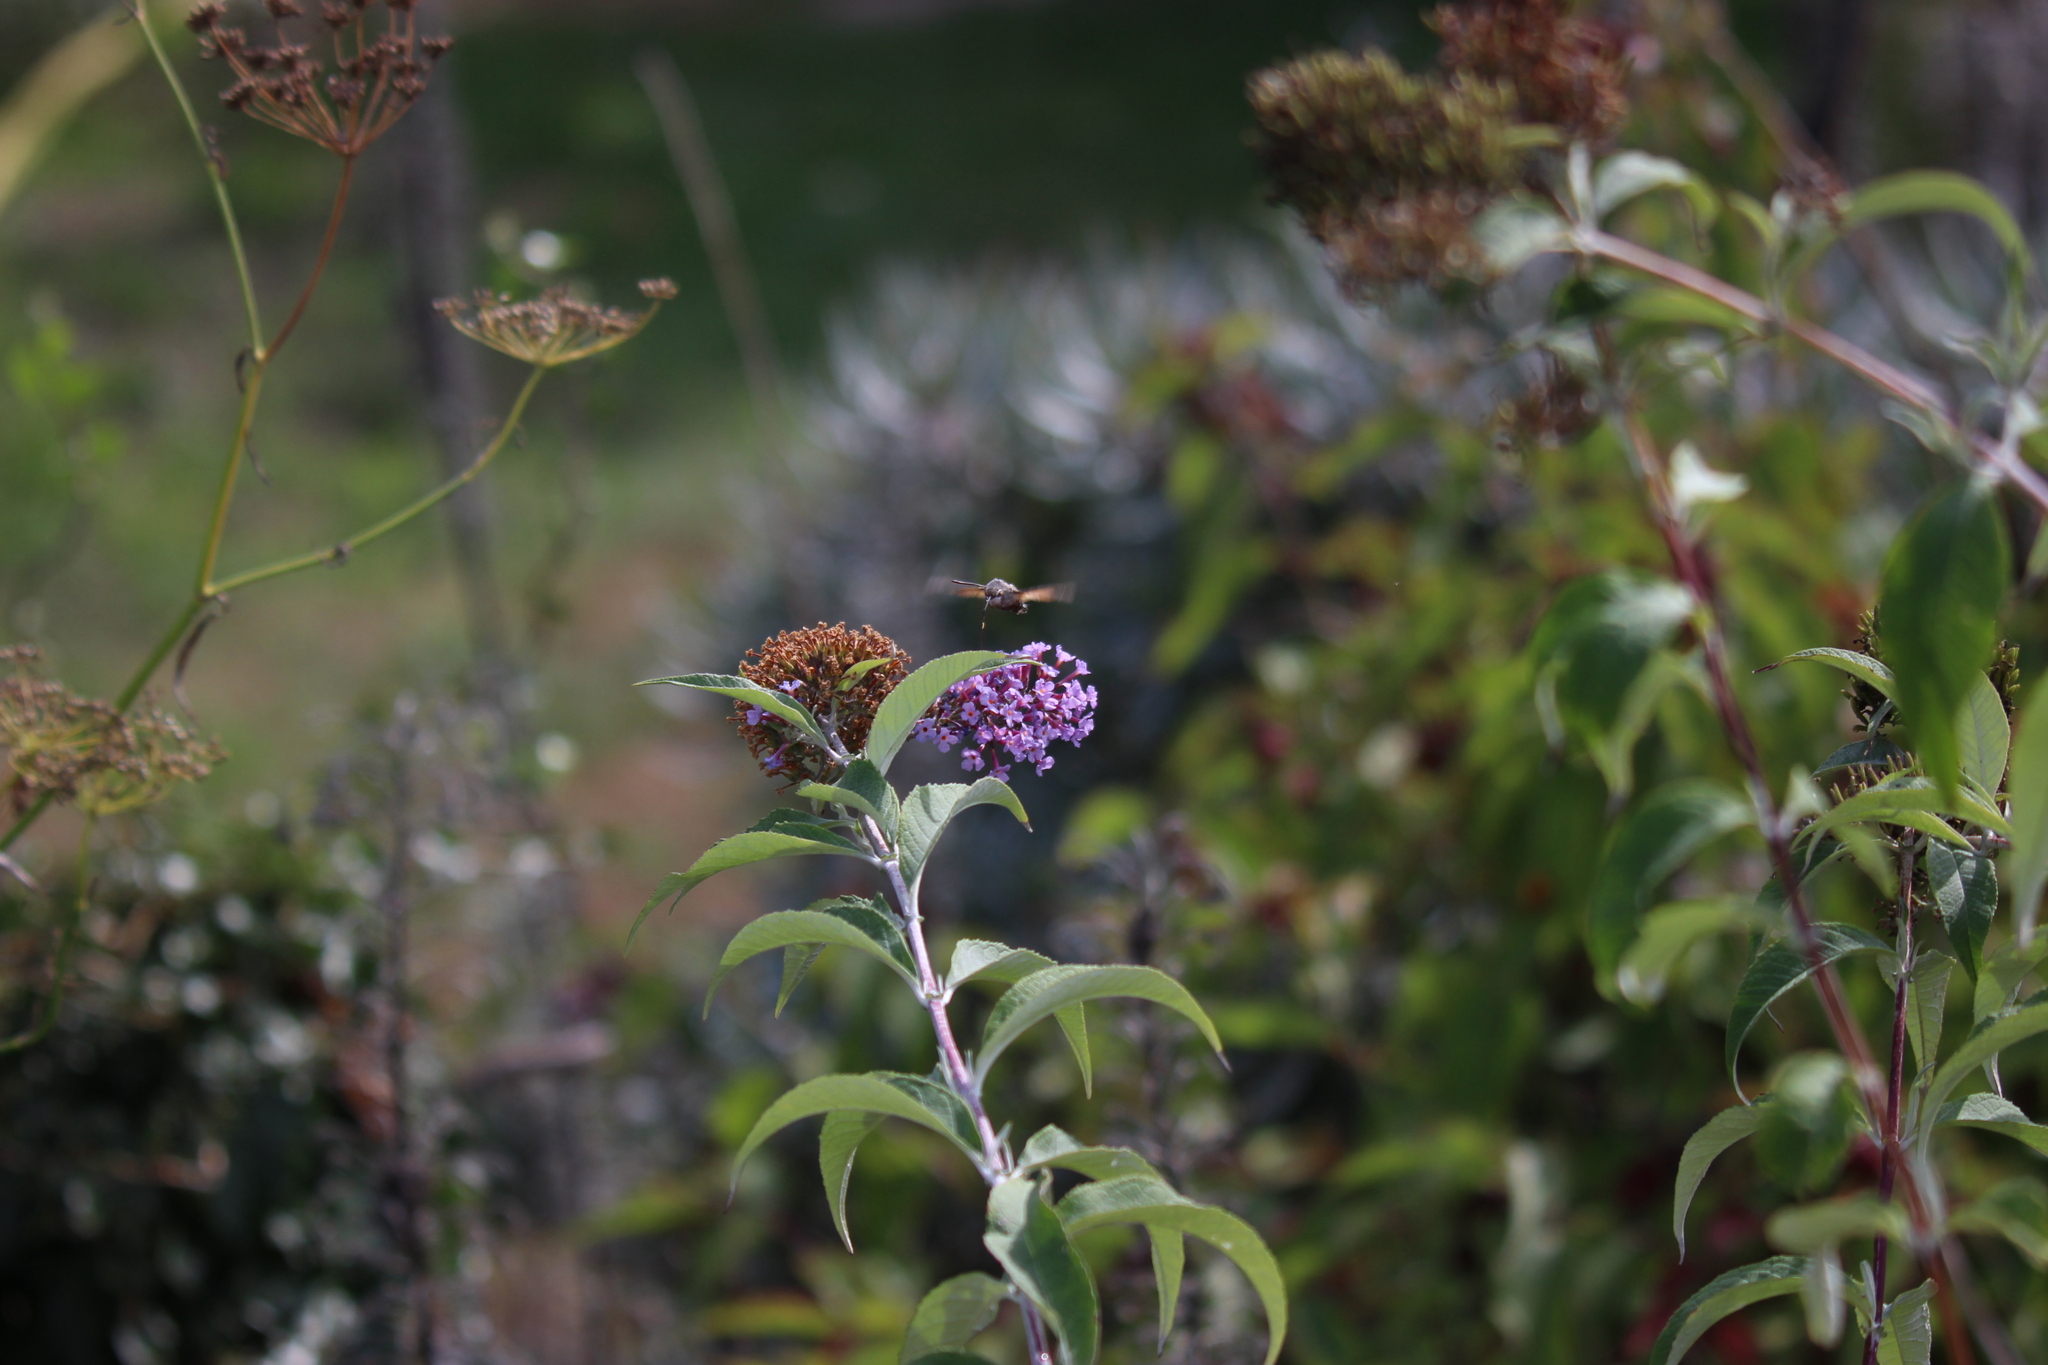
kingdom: Animalia
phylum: Arthropoda
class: Insecta
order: Lepidoptera
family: Sphingidae
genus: Macroglossum
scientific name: Macroglossum stellatarum
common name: Humming-bird hawk-moth
